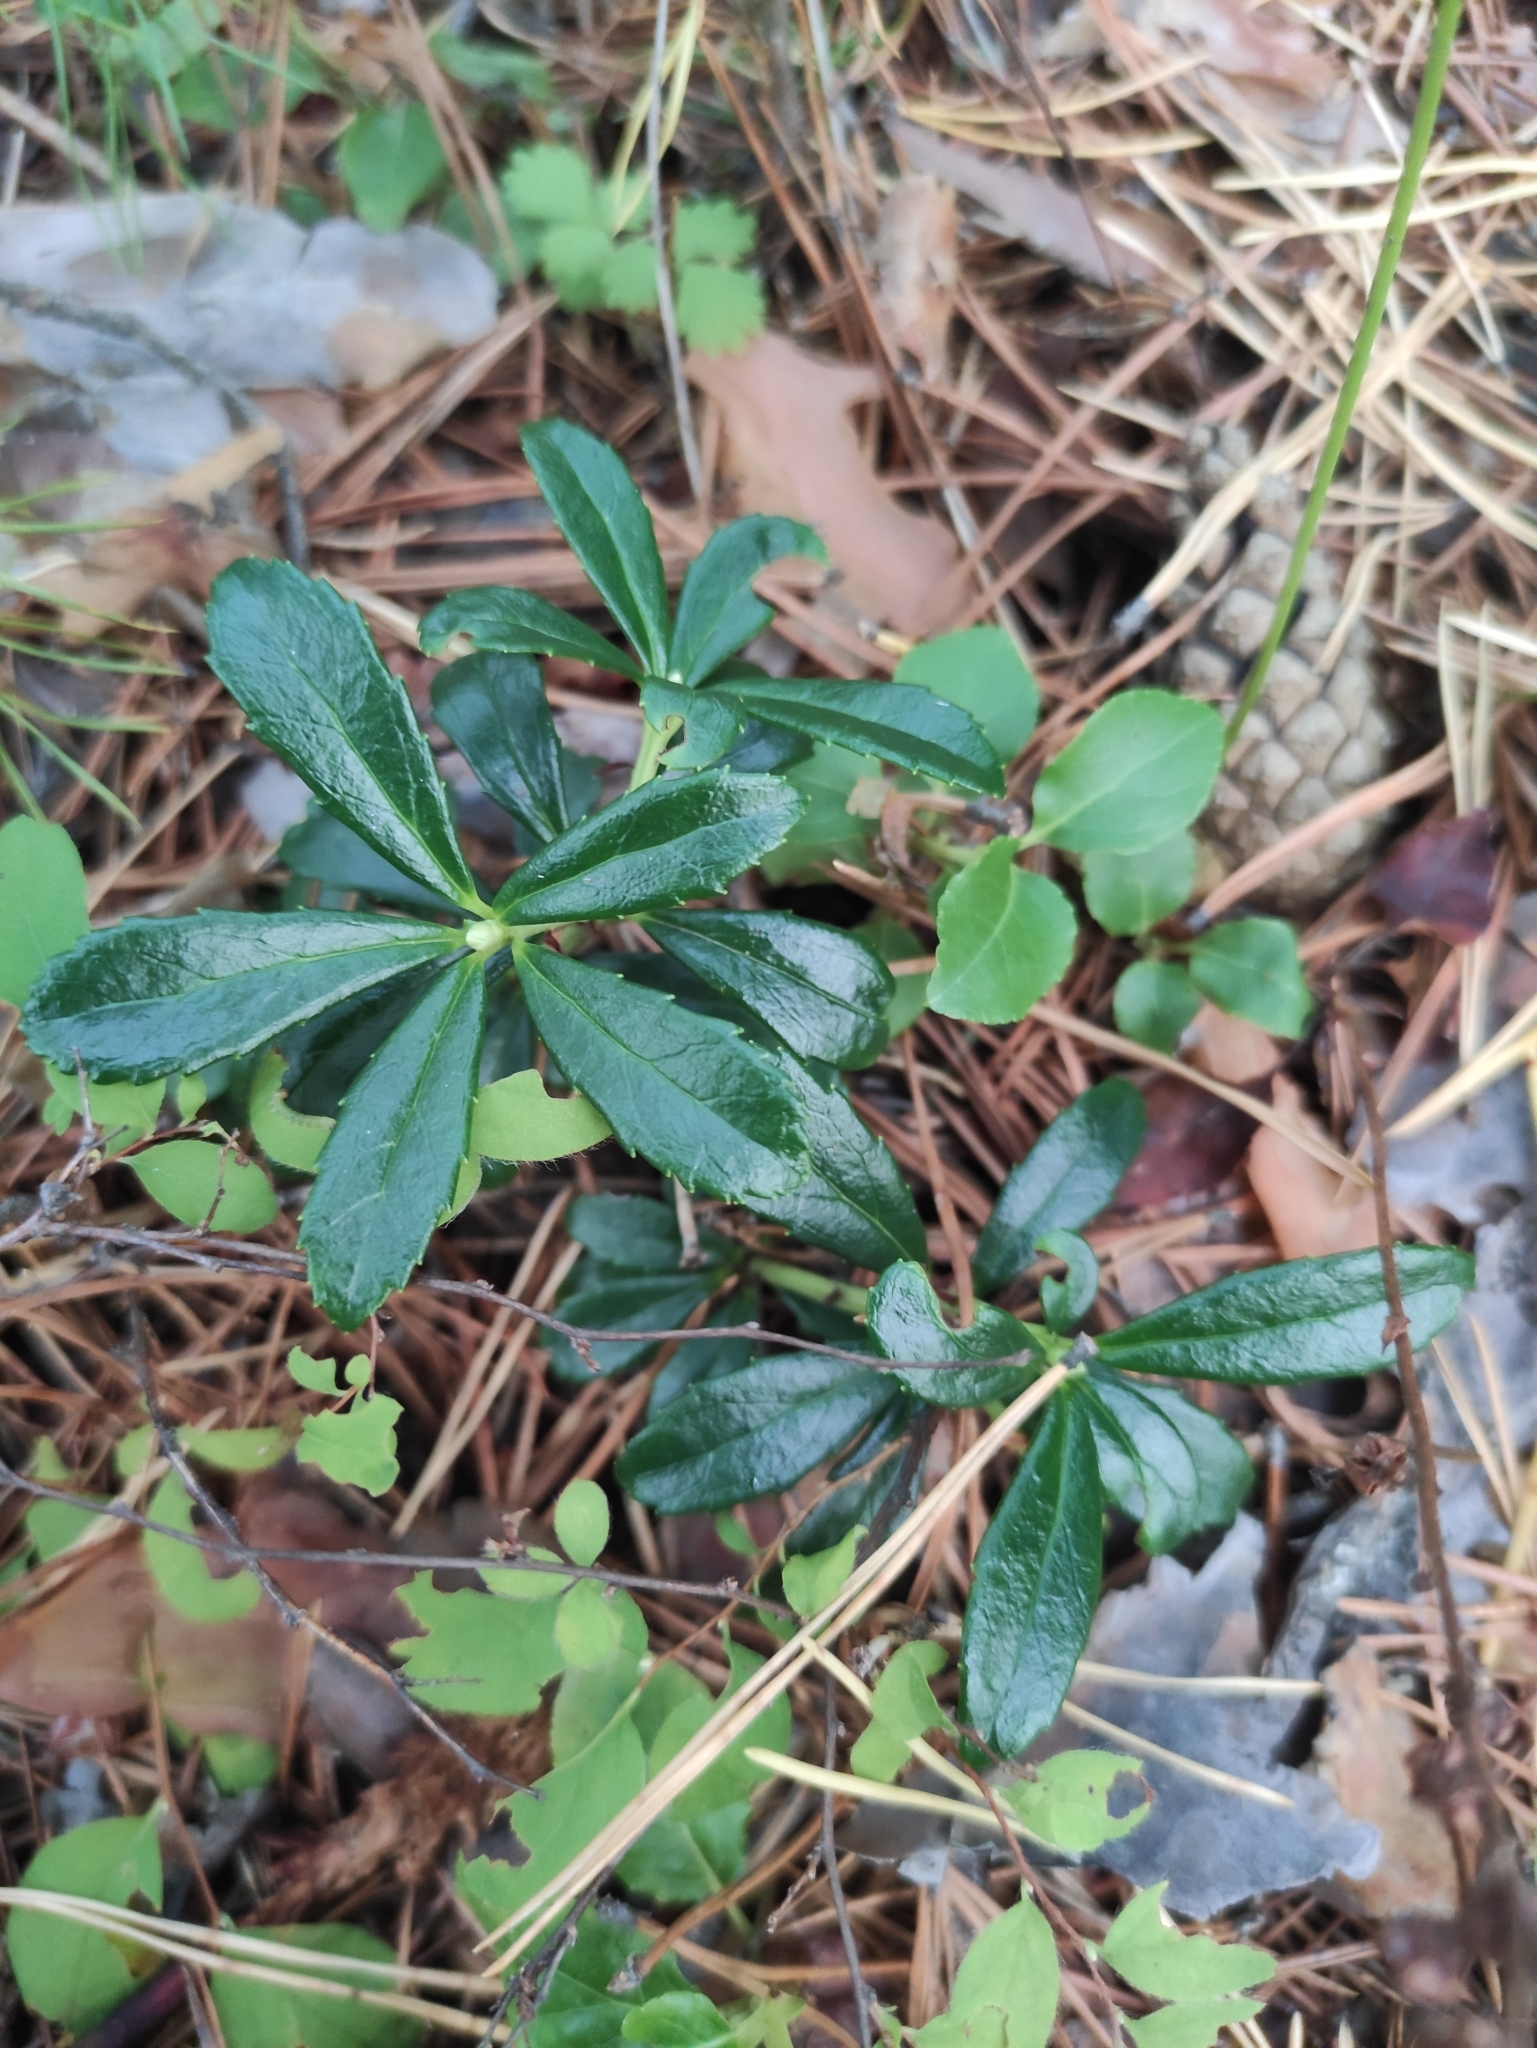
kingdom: Plantae
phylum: Tracheophyta
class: Magnoliopsida
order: Ericales
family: Ericaceae
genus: Chimaphila
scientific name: Chimaphila umbellata
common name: Pipsissewa
